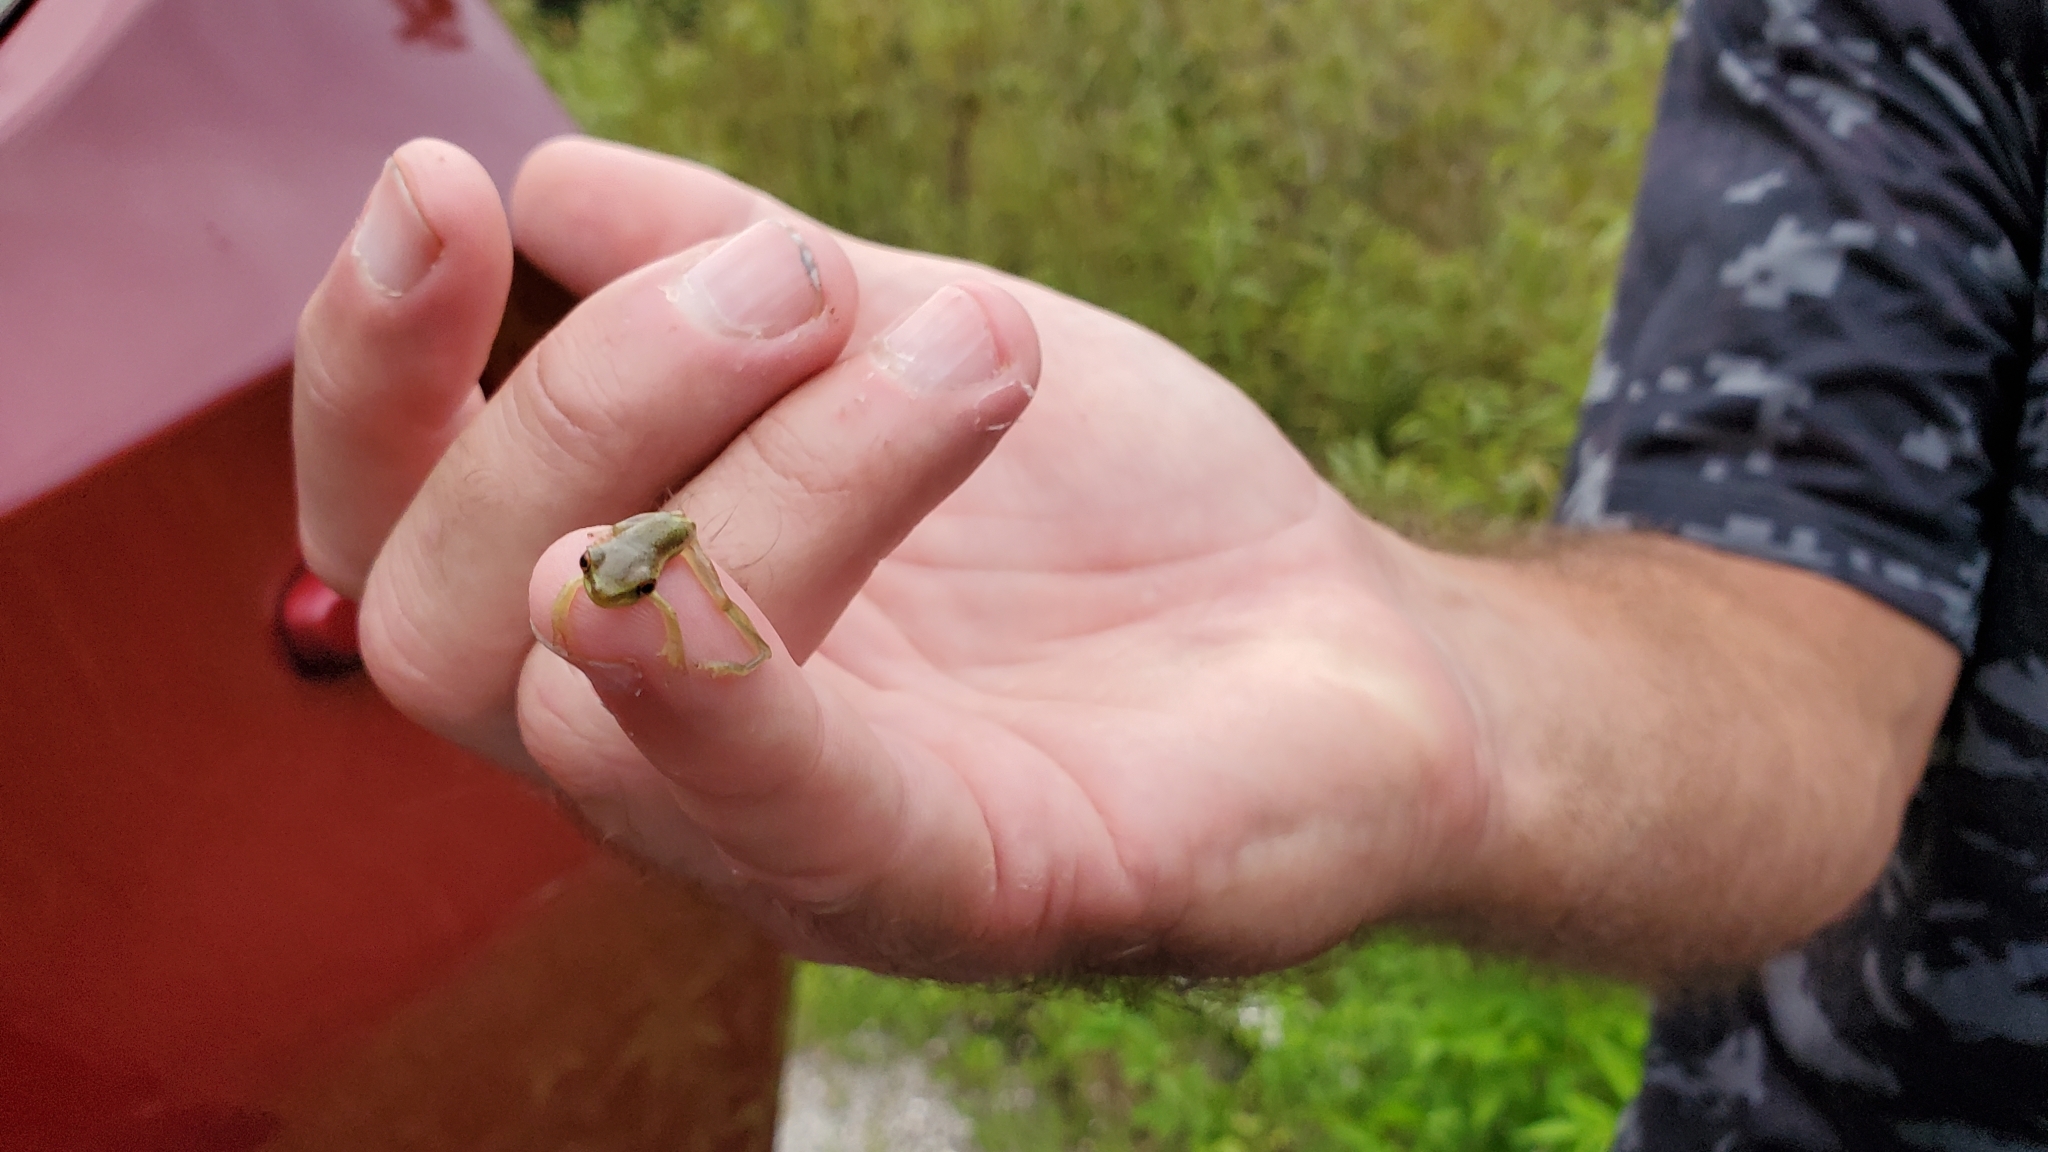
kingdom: Animalia
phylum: Chordata
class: Amphibia
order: Anura
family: Hylidae
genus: Osteopilus
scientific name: Osteopilus septentrionalis
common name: Cuban treefrog
